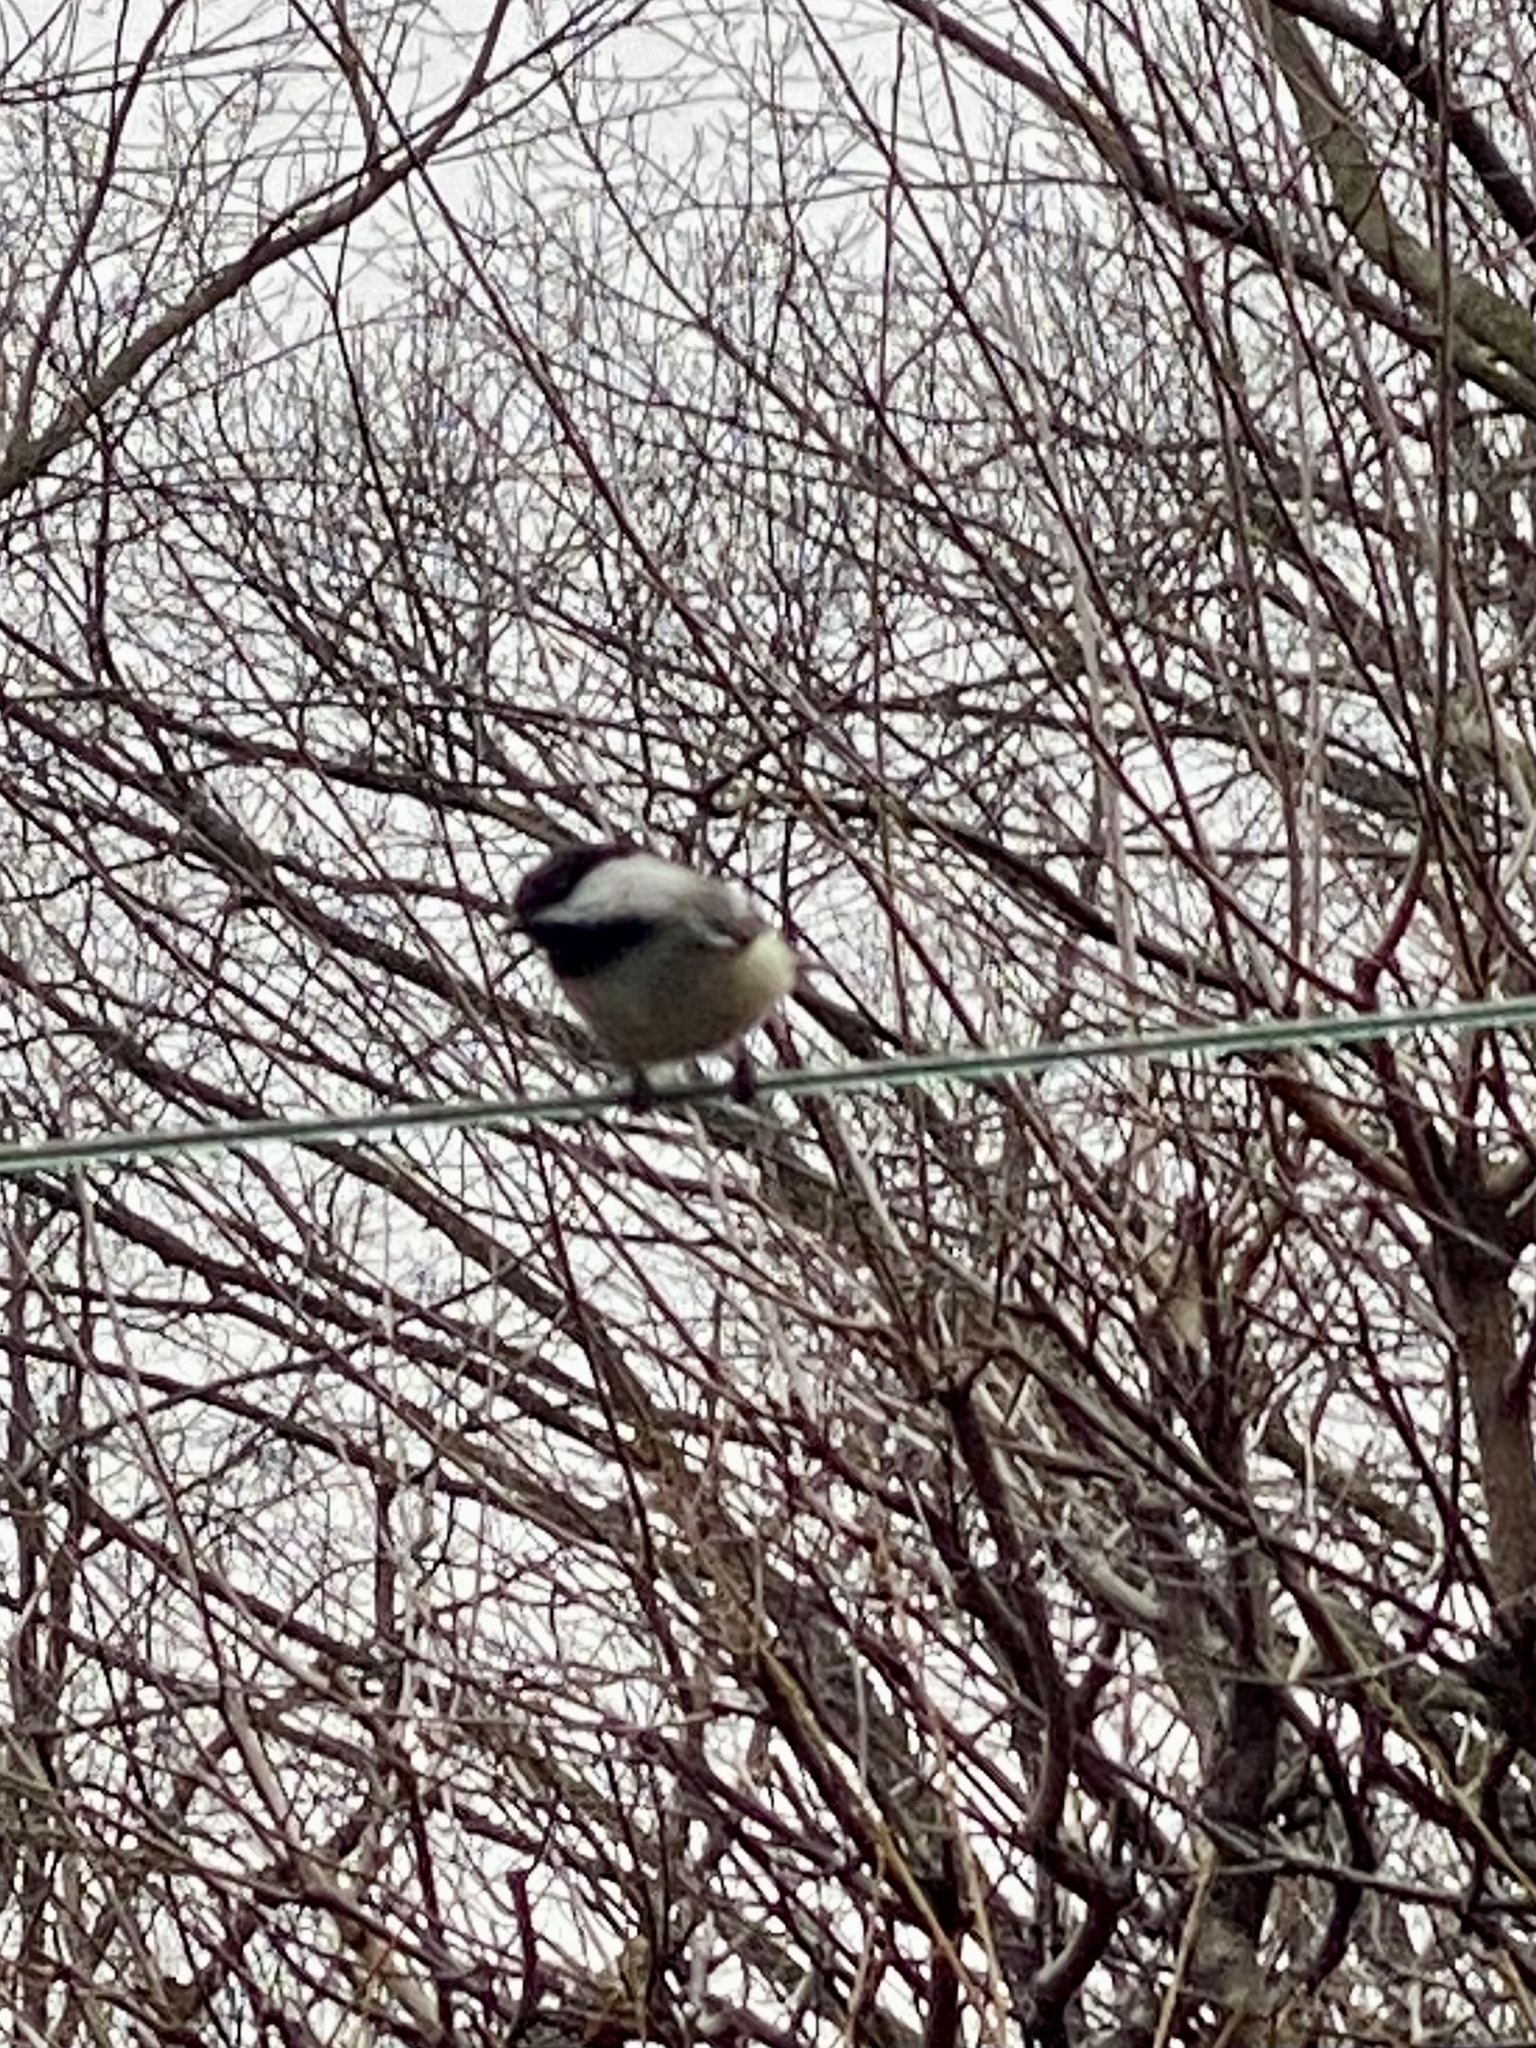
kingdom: Animalia
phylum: Chordata
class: Aves
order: Passeriformes
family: Paridae
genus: Poecile
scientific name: Poecile atricapillus
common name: Black-capped chickadee
